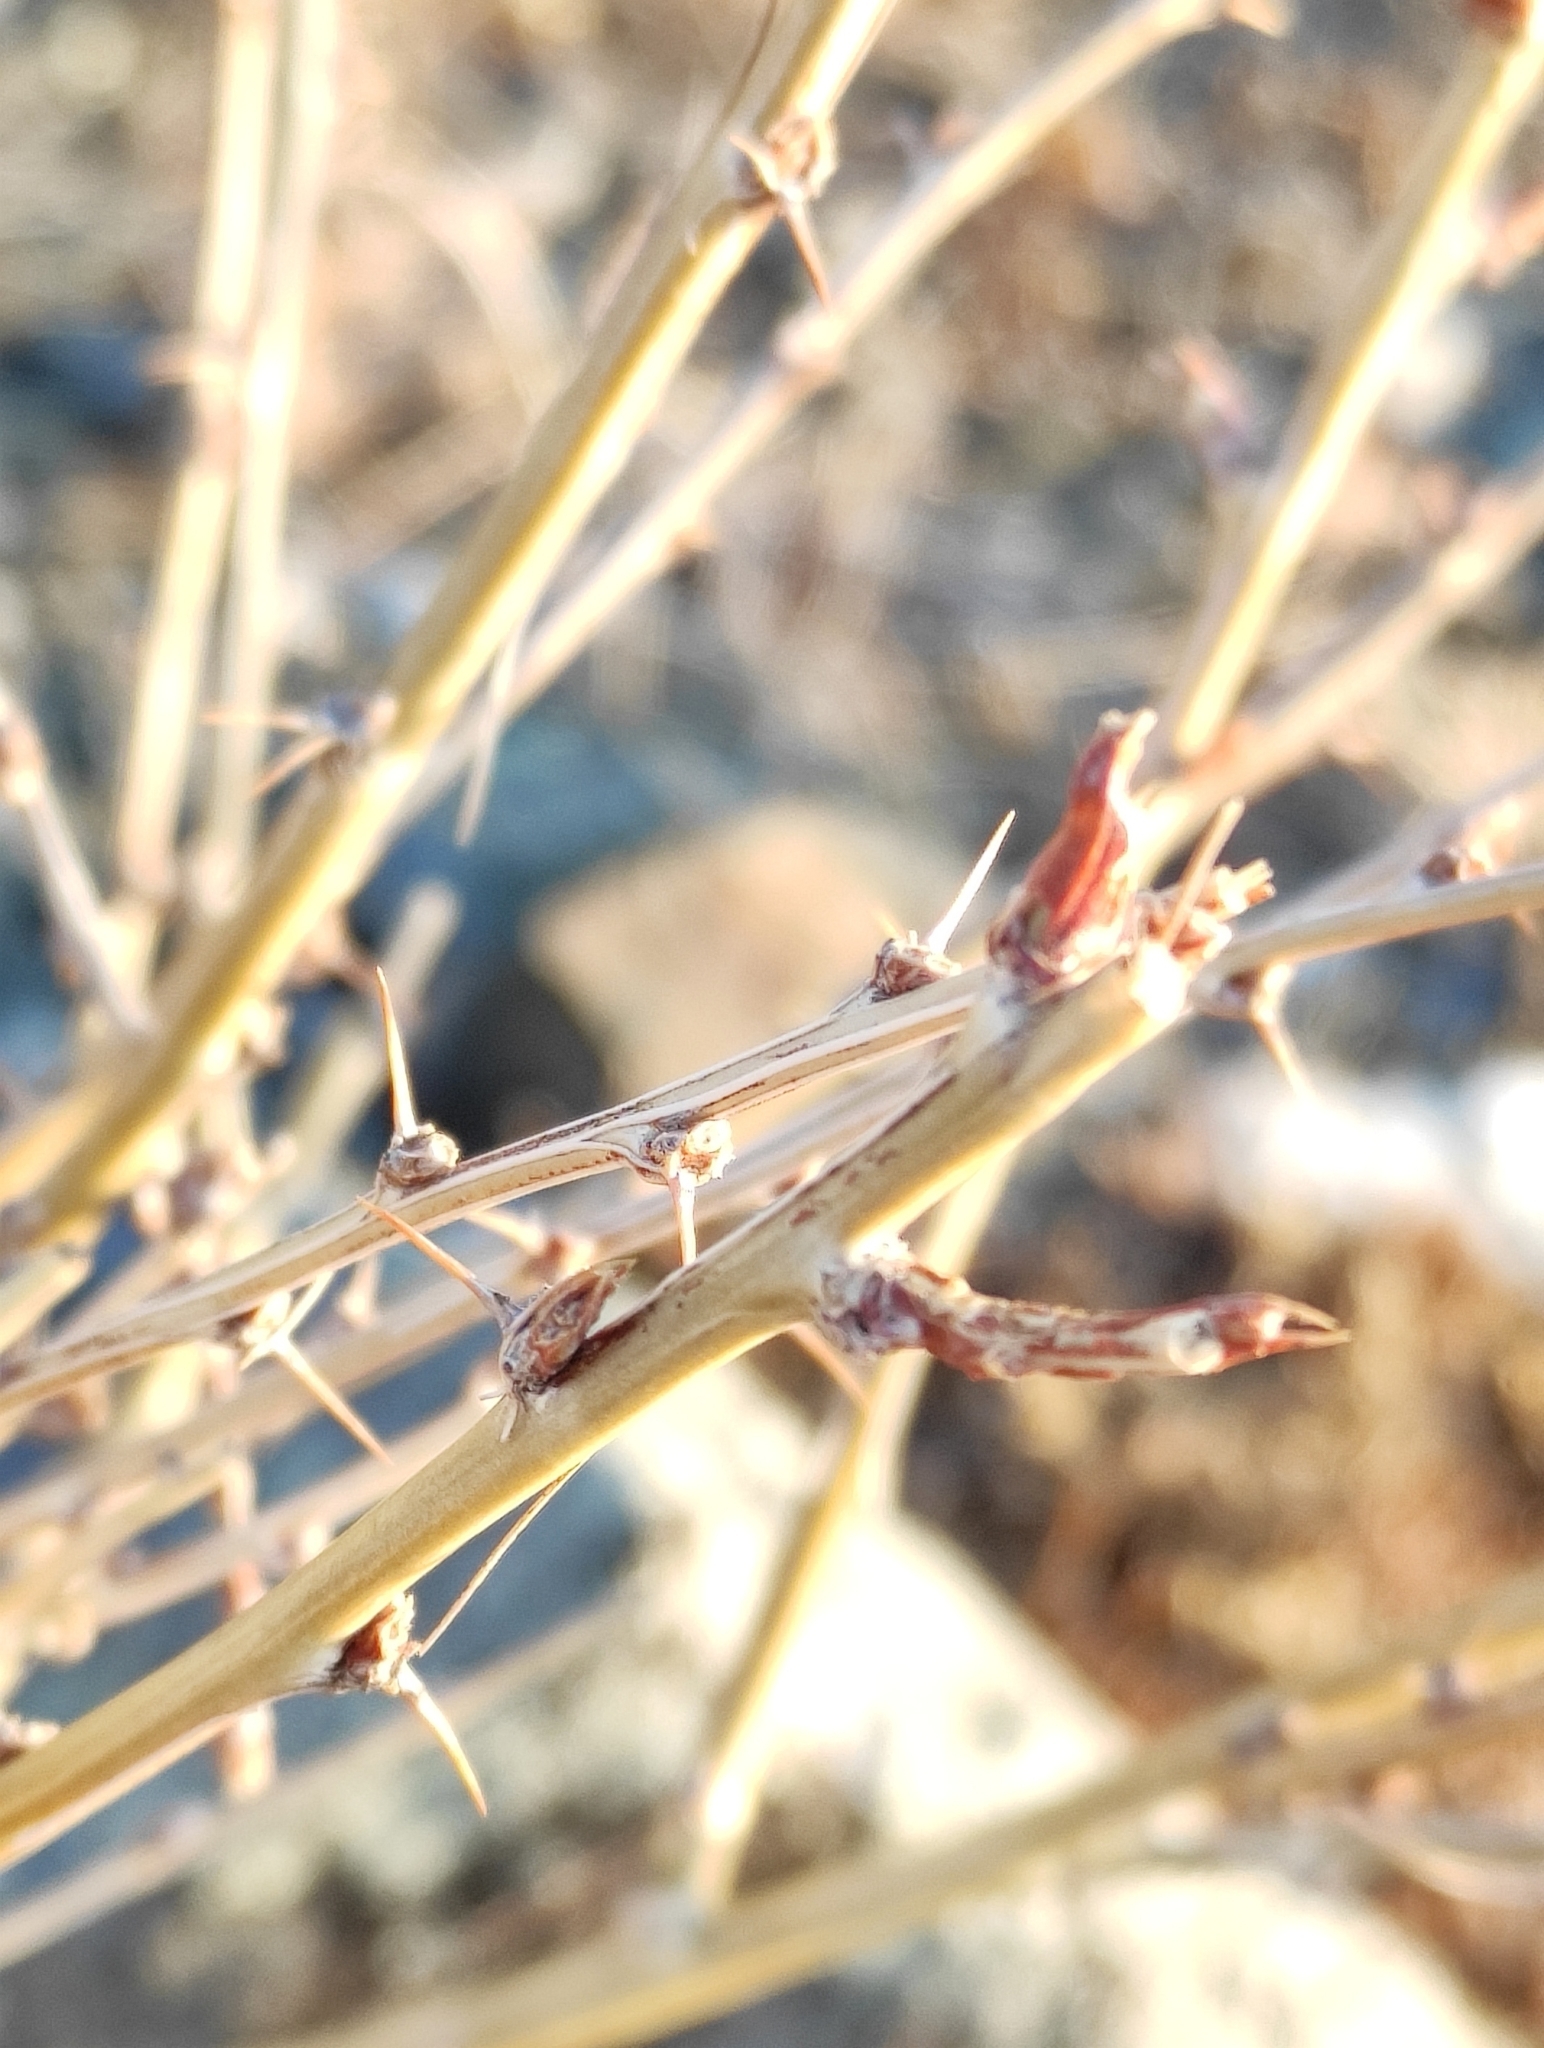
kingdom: Plantae
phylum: Tracheophyta
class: Magnoliopsida
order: Fabales
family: Fabaceae
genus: Caragana
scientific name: Caragana pygmaea
